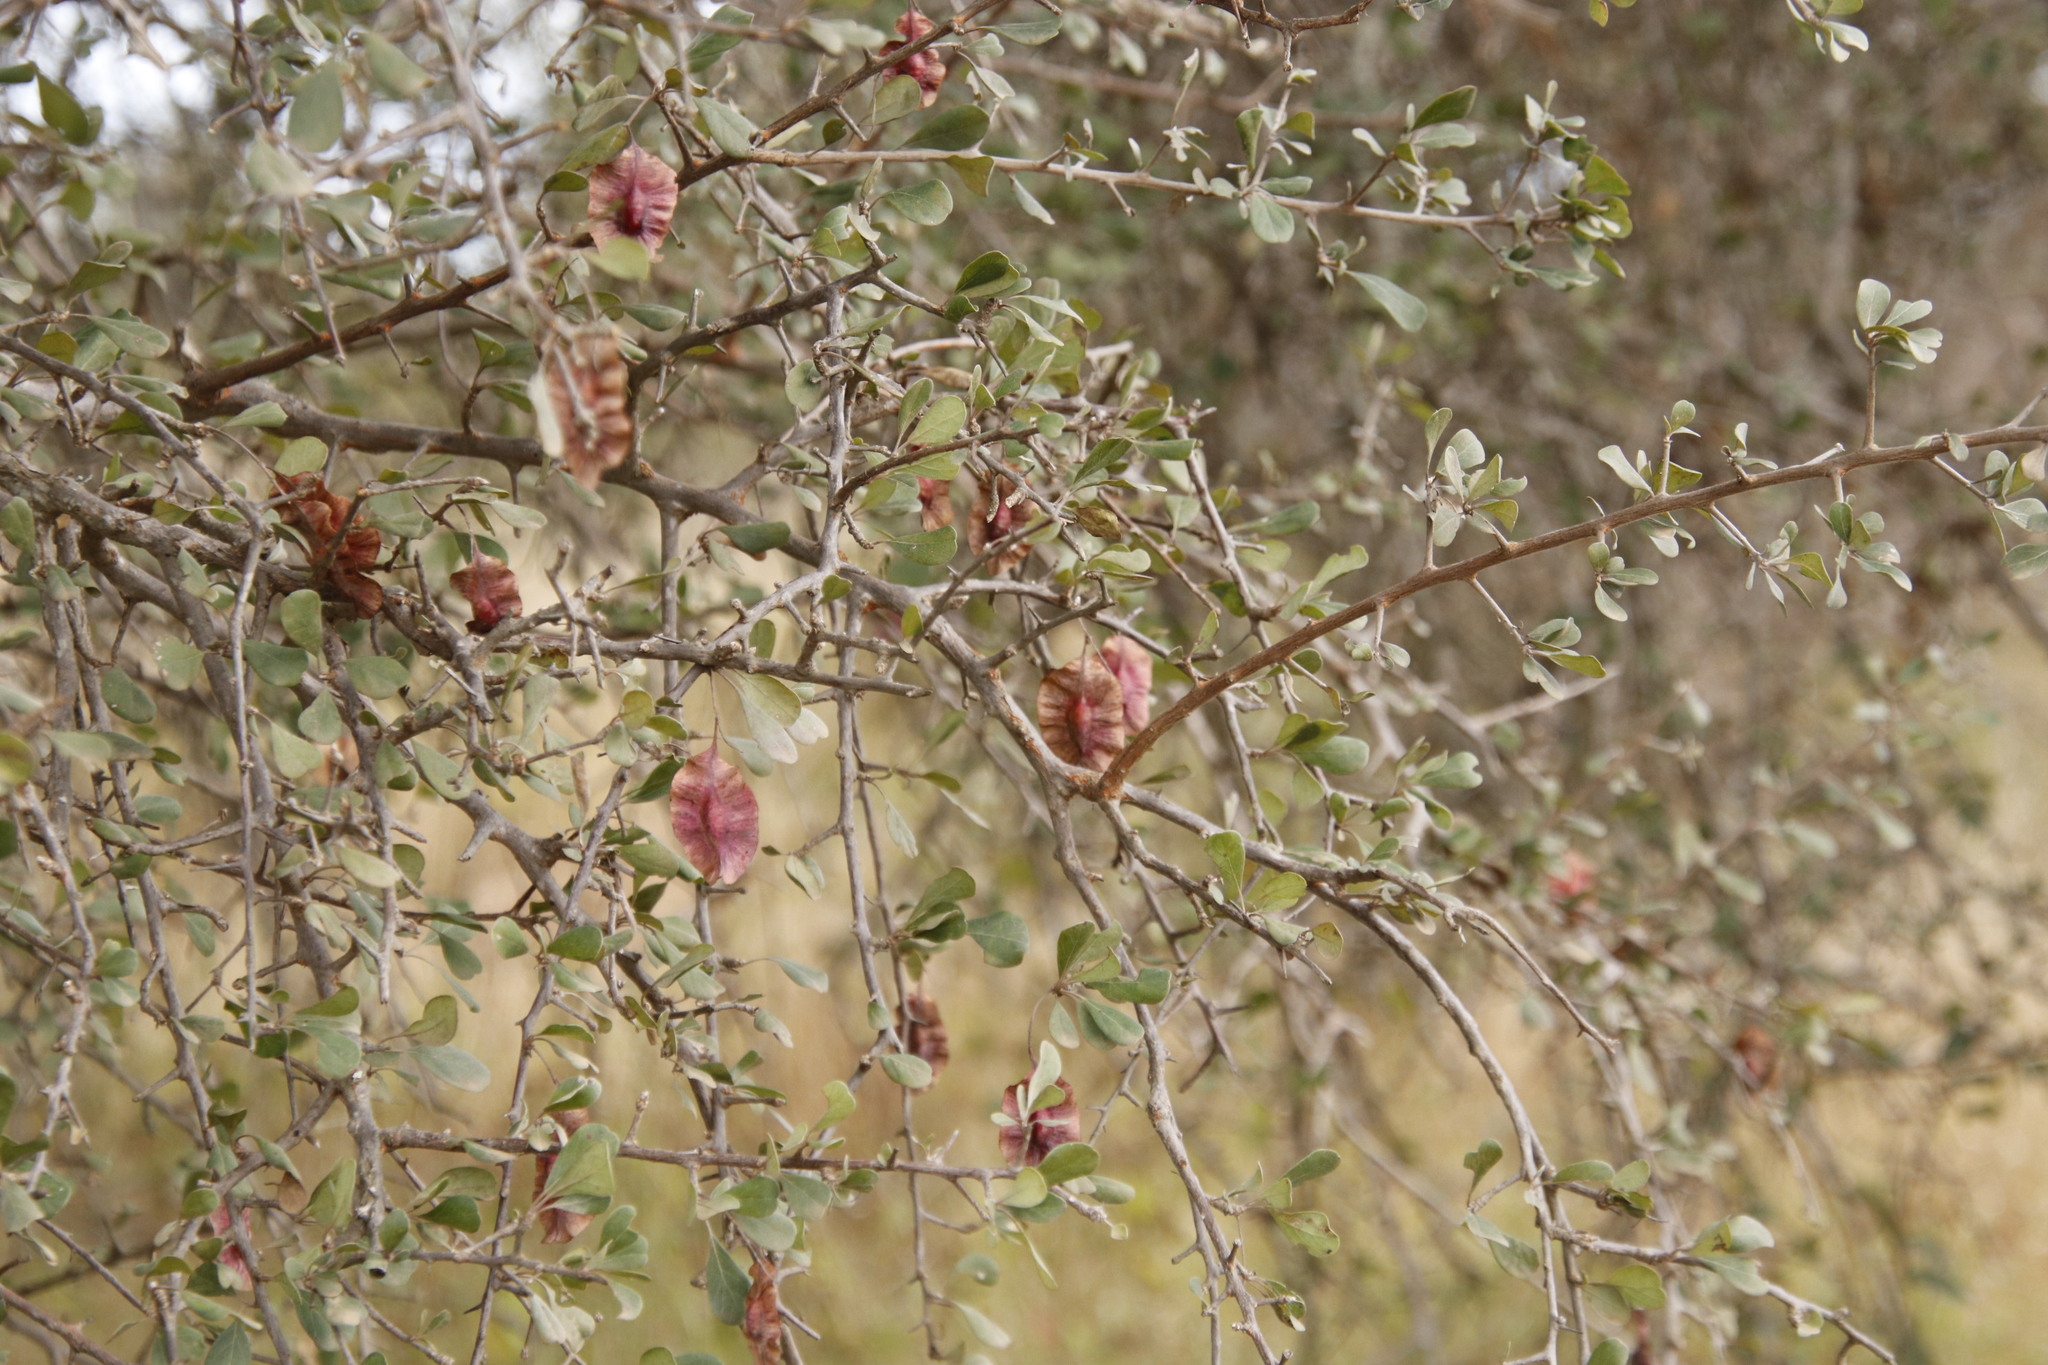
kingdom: Plantae
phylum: Tracheophyta
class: Magnoliopsida
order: Myrtales
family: Combretaceae
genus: Terminalia
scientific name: Terminalia prunioides
